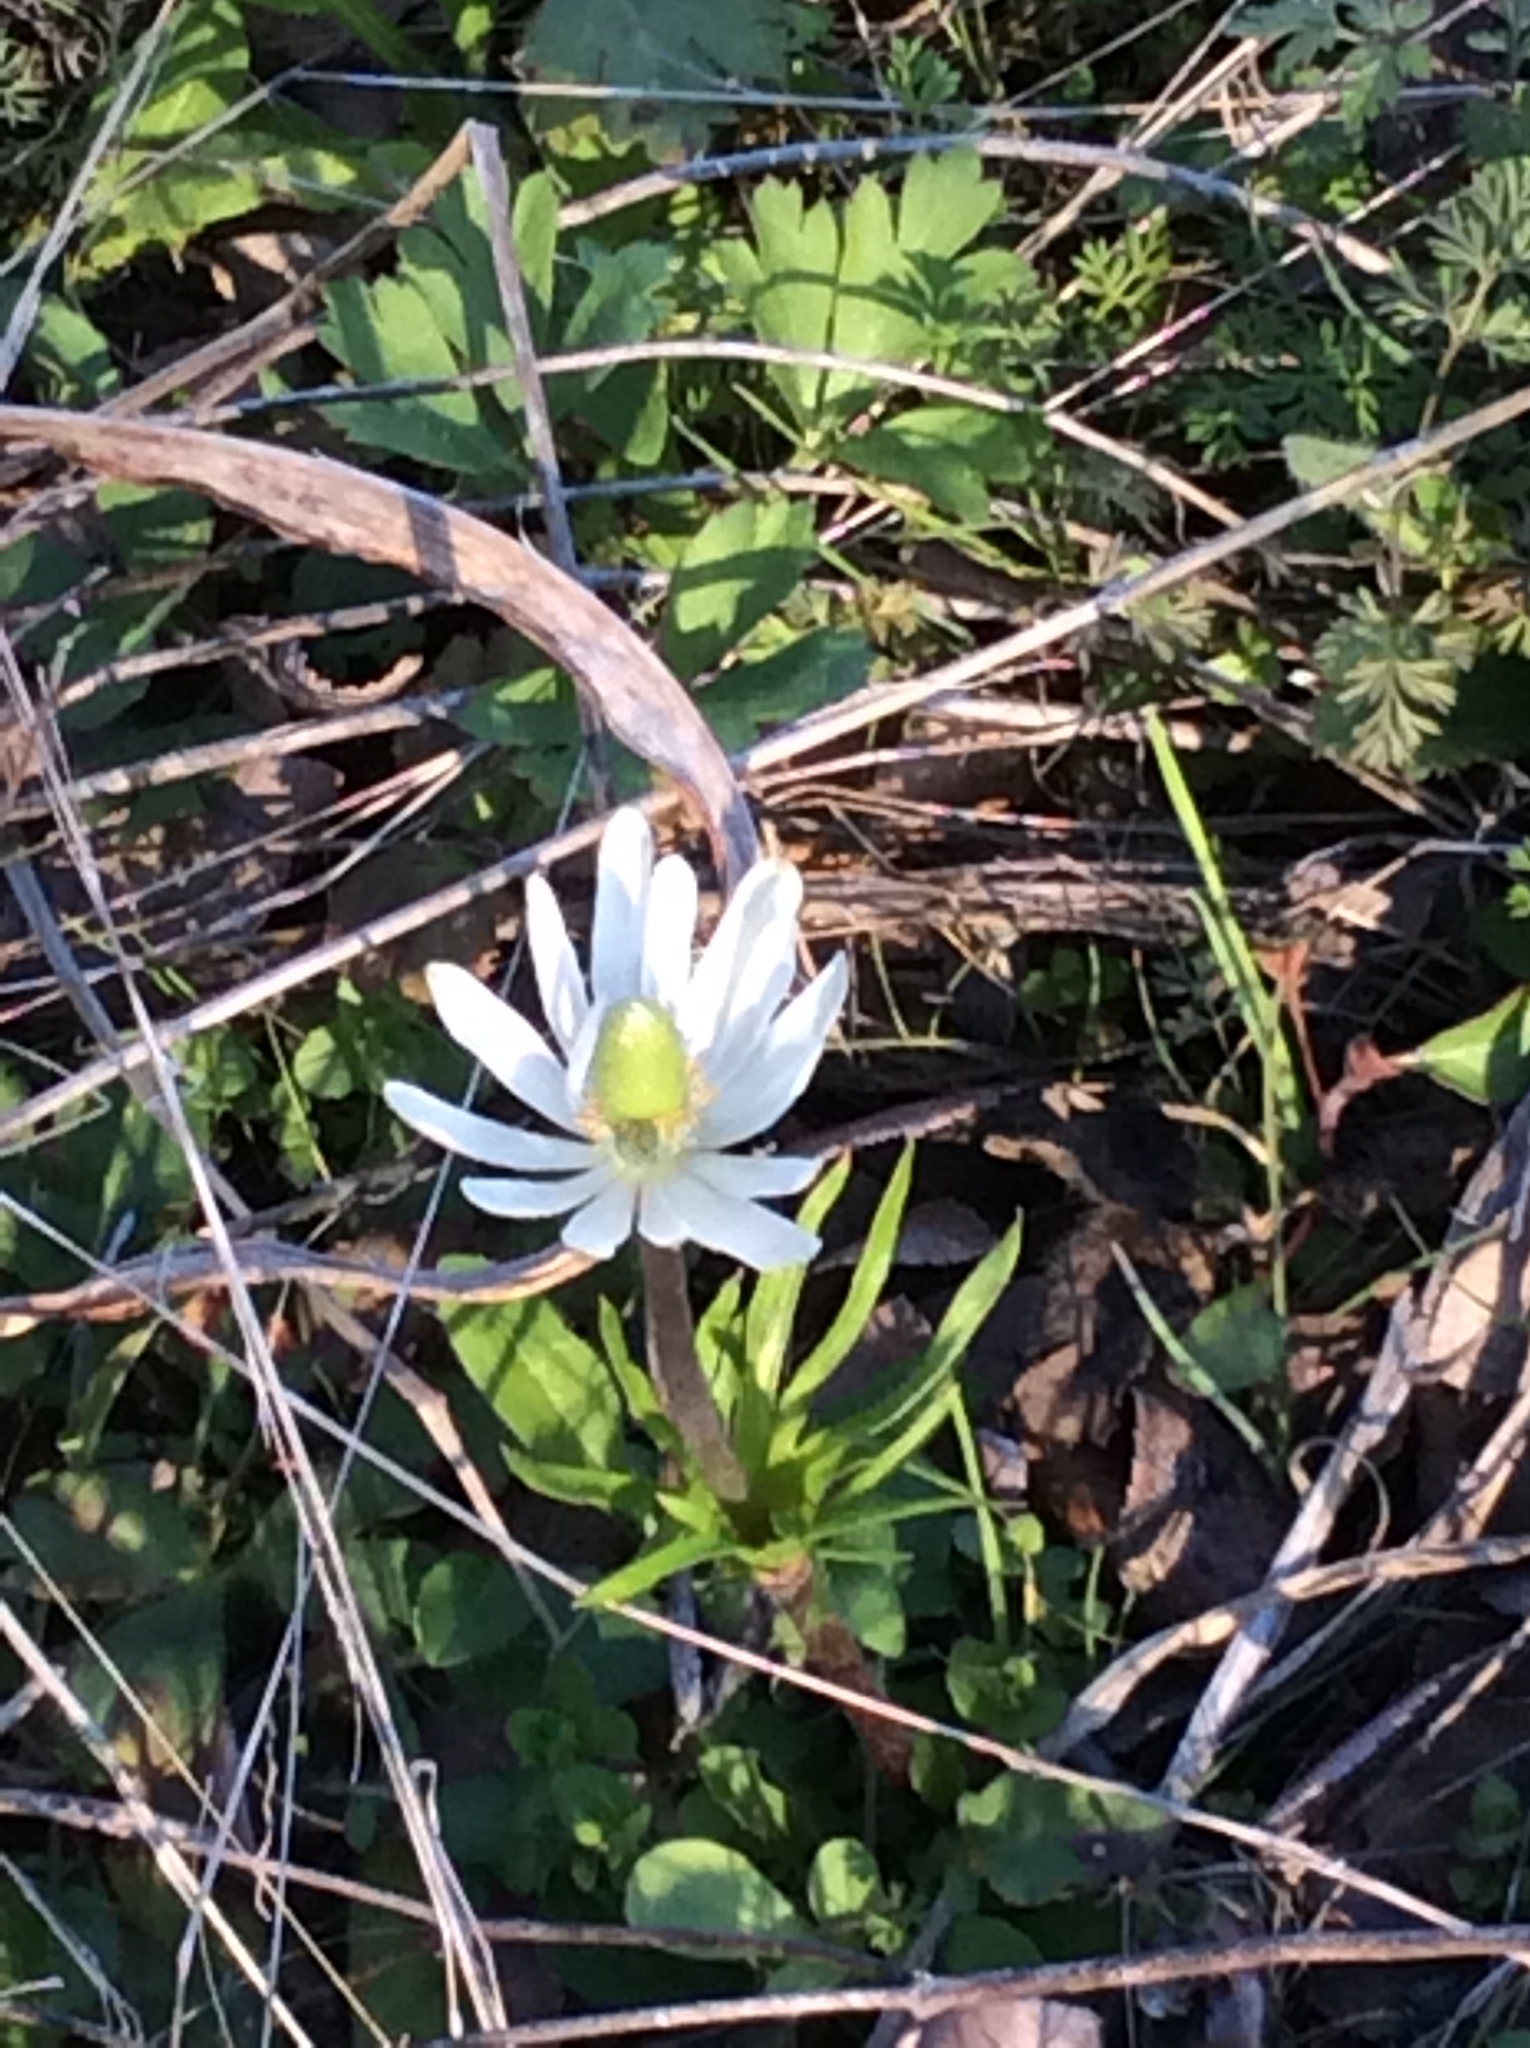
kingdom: Plantae
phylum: Tracheophyta
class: Magnoliopsida
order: Ranunculales
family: Ranunculaceae
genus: Anemone
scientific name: Anemone berlandieri
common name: Ten-petal anemone
